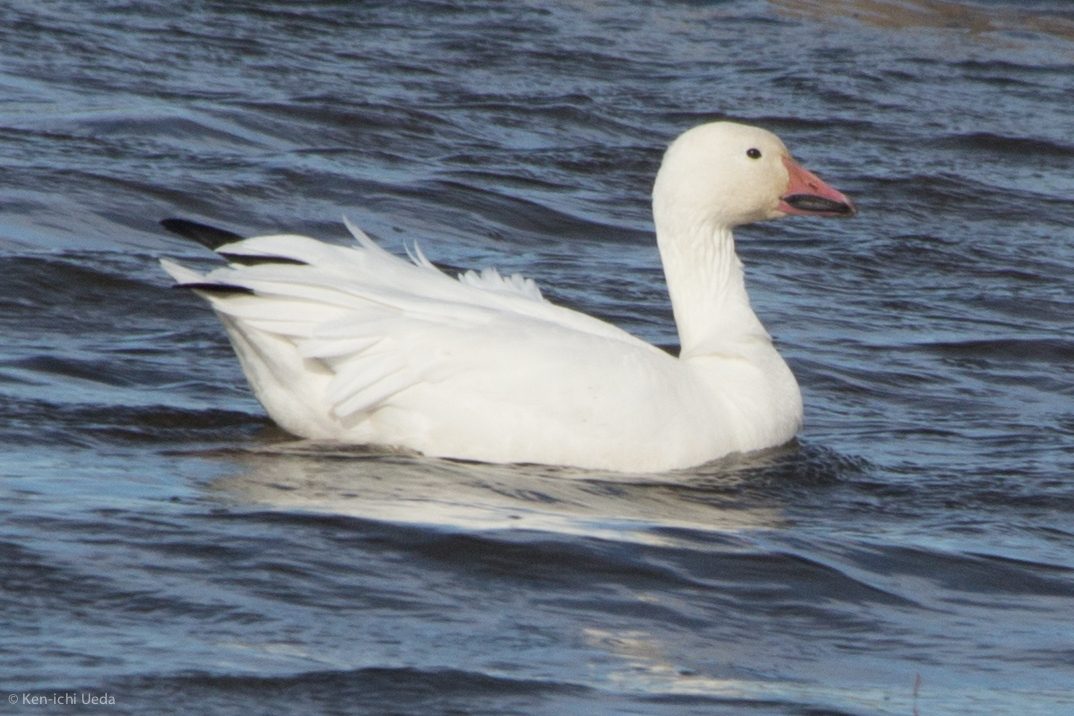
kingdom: Animalia
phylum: Chordata
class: Aves
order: Anseriformes
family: Anatidae
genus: Anser
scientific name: Anser caerulescens
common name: Snow goose
